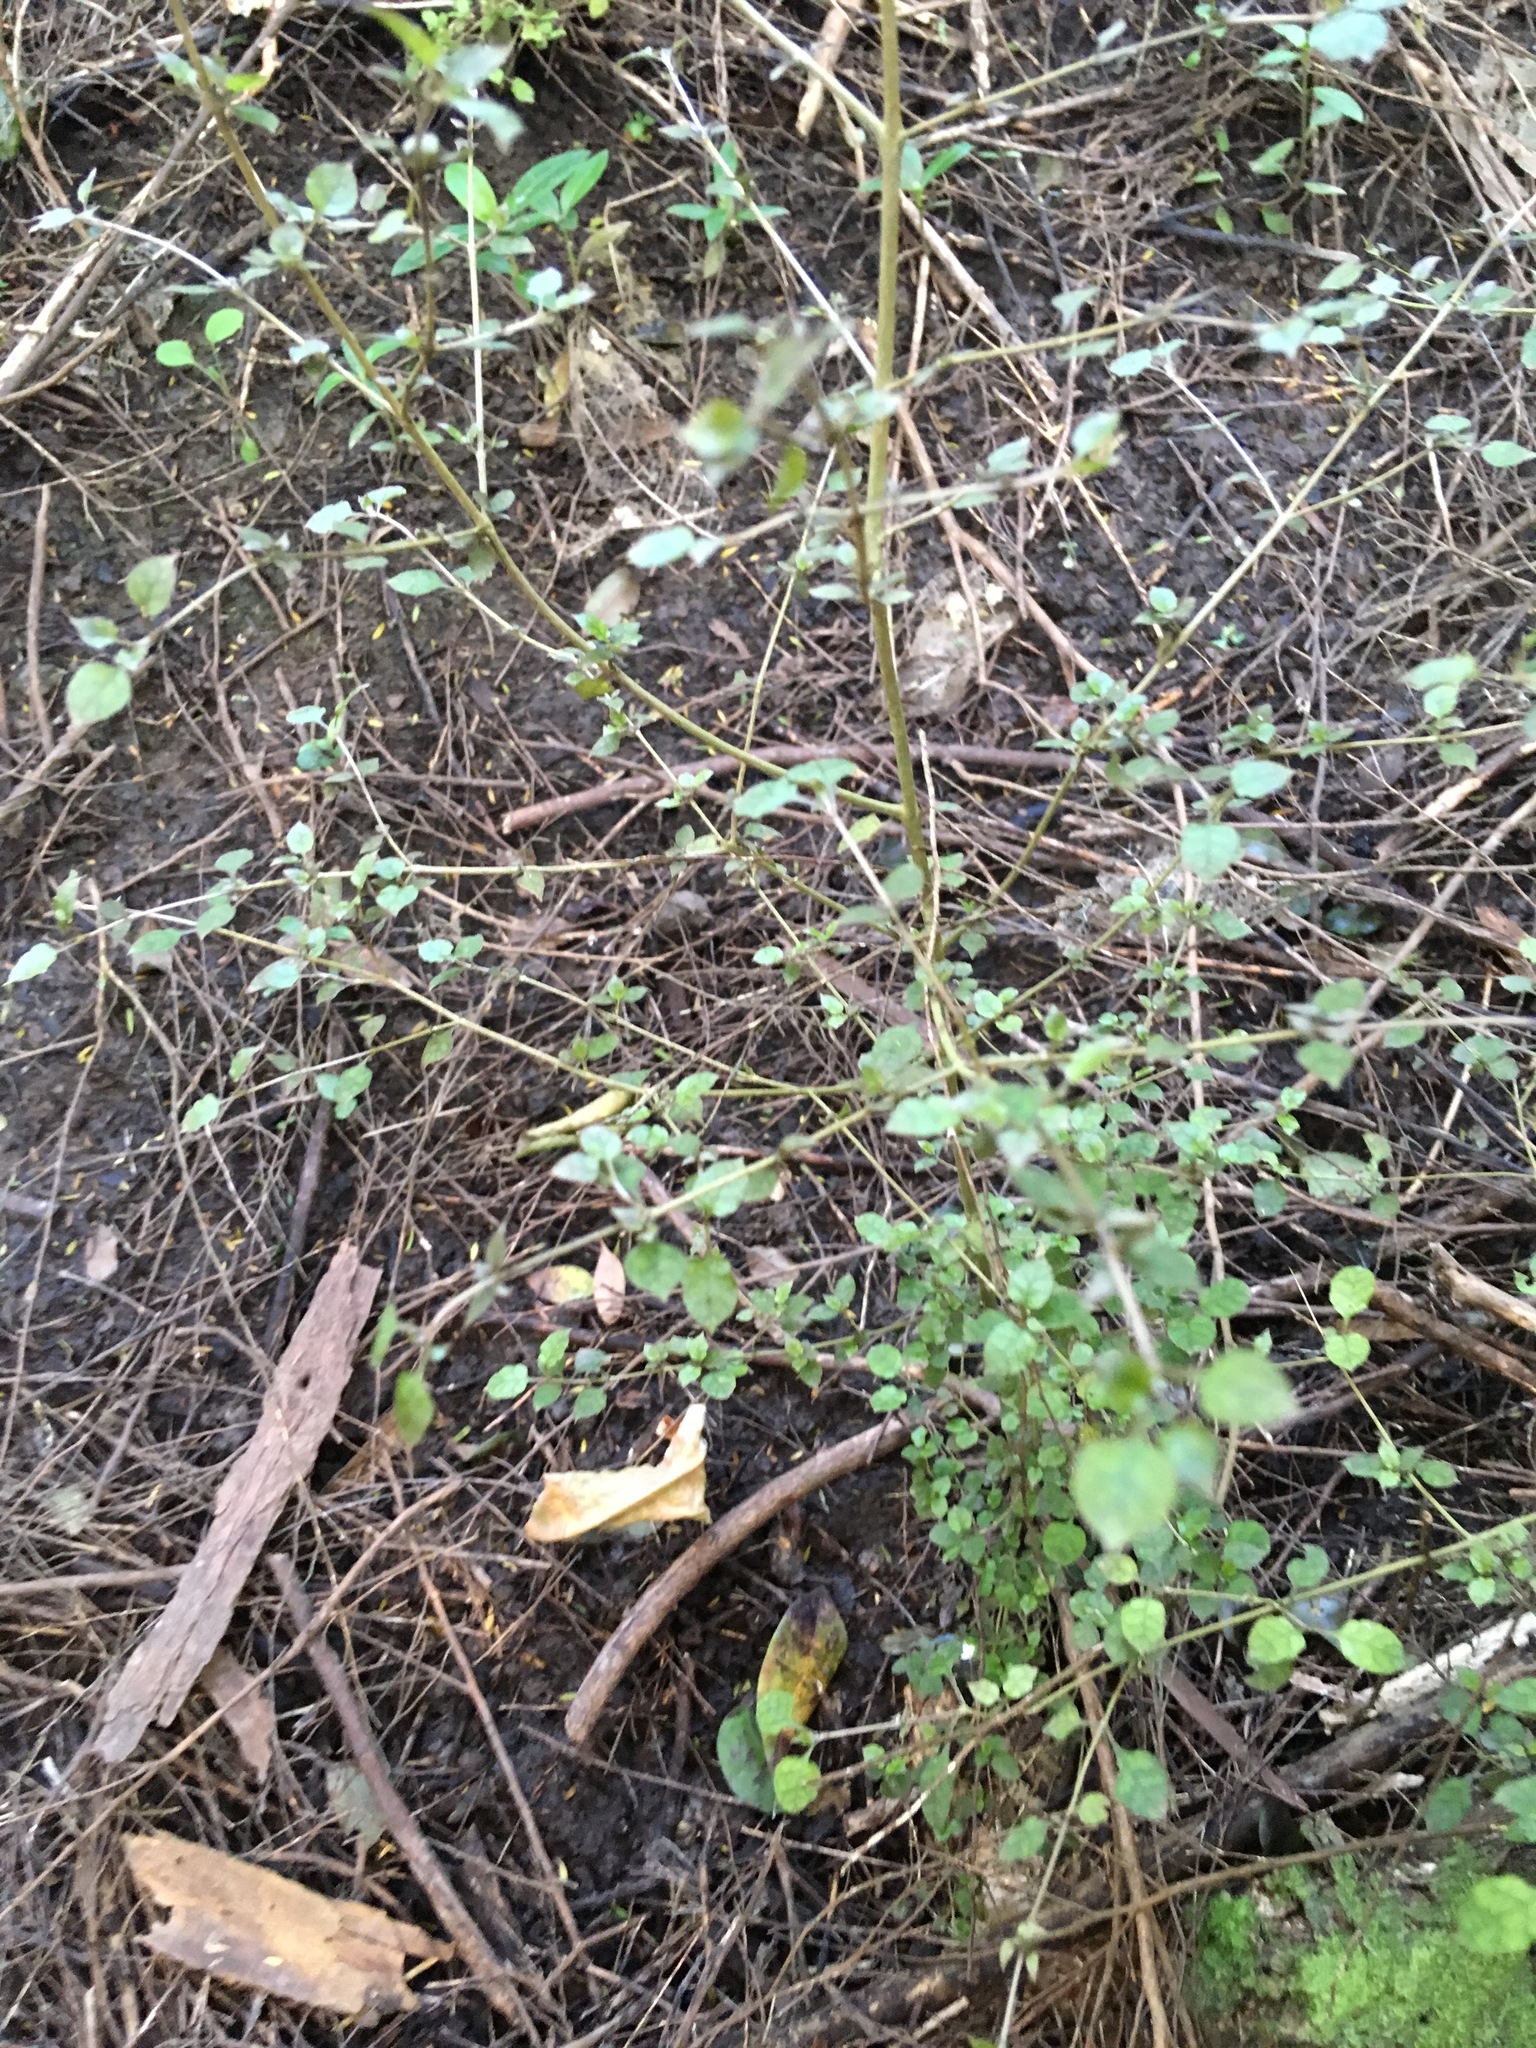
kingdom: Plantae
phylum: Tracheophyta
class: Magnoliopsida
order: Gentianales
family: Rubiaceae
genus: Coprosma
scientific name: Coprosma areolata
